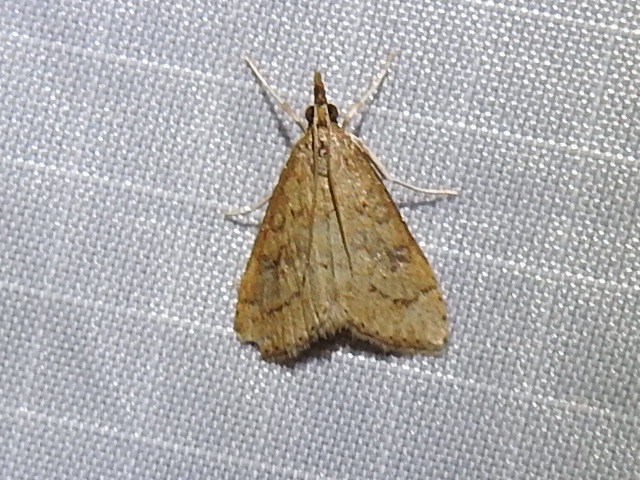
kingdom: Animalia
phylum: Arthropoda
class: Insecta
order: Lepidoptera
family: Crambidae
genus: Udea
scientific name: Udea rubigalis
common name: Celery leaftier moth
